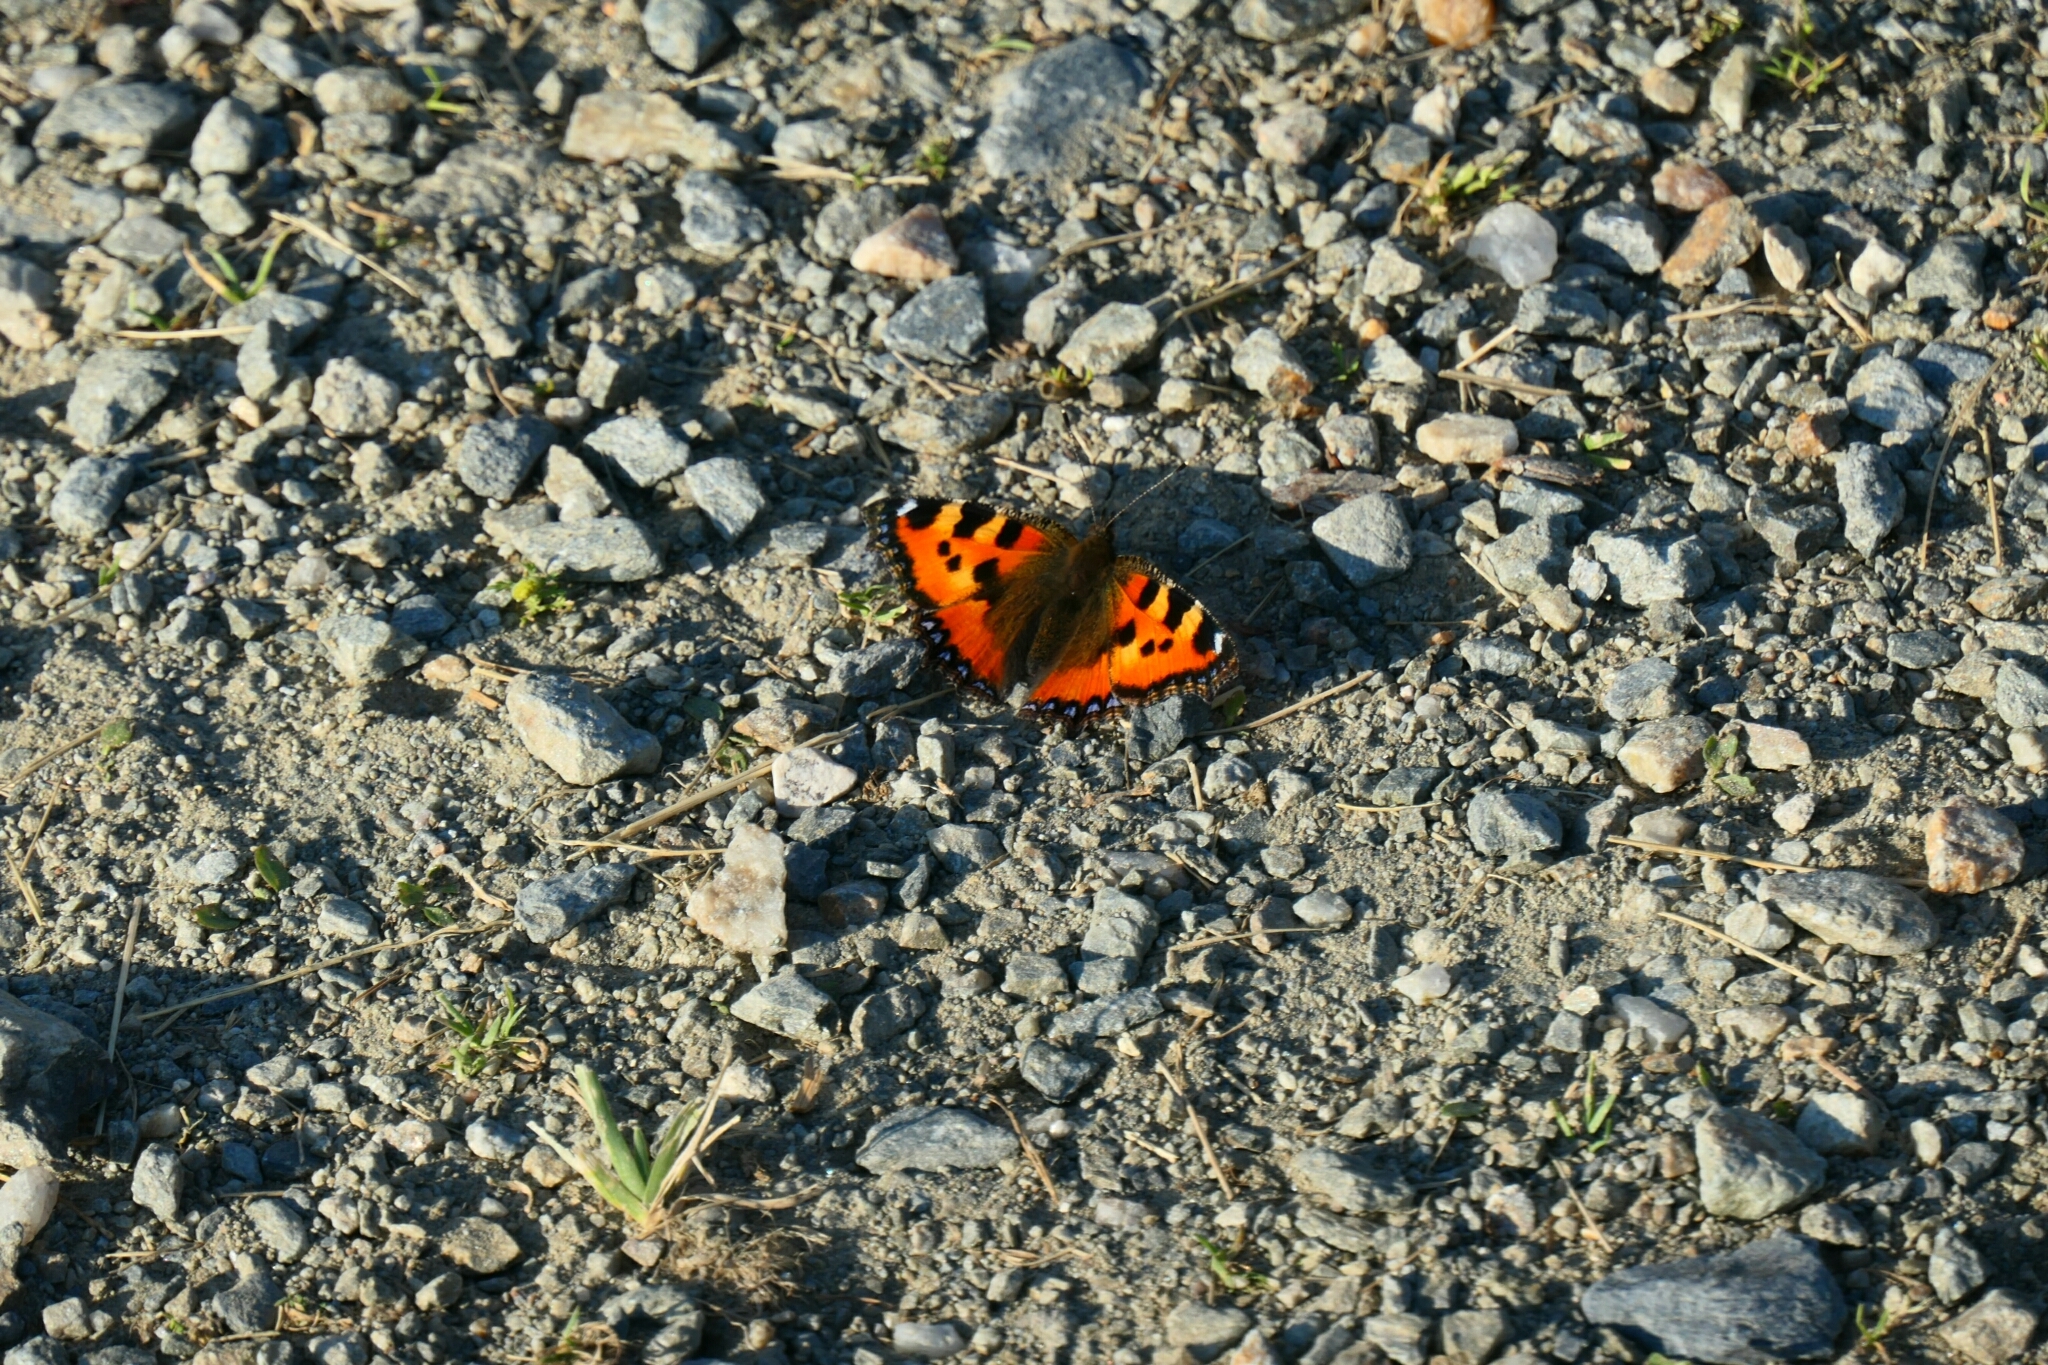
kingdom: Animalia
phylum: Arthropoda
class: Insecta
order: Lepidoptera
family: Nymphalidae
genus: Aglais
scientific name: Aglais urticae
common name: Small tortoiseshell
